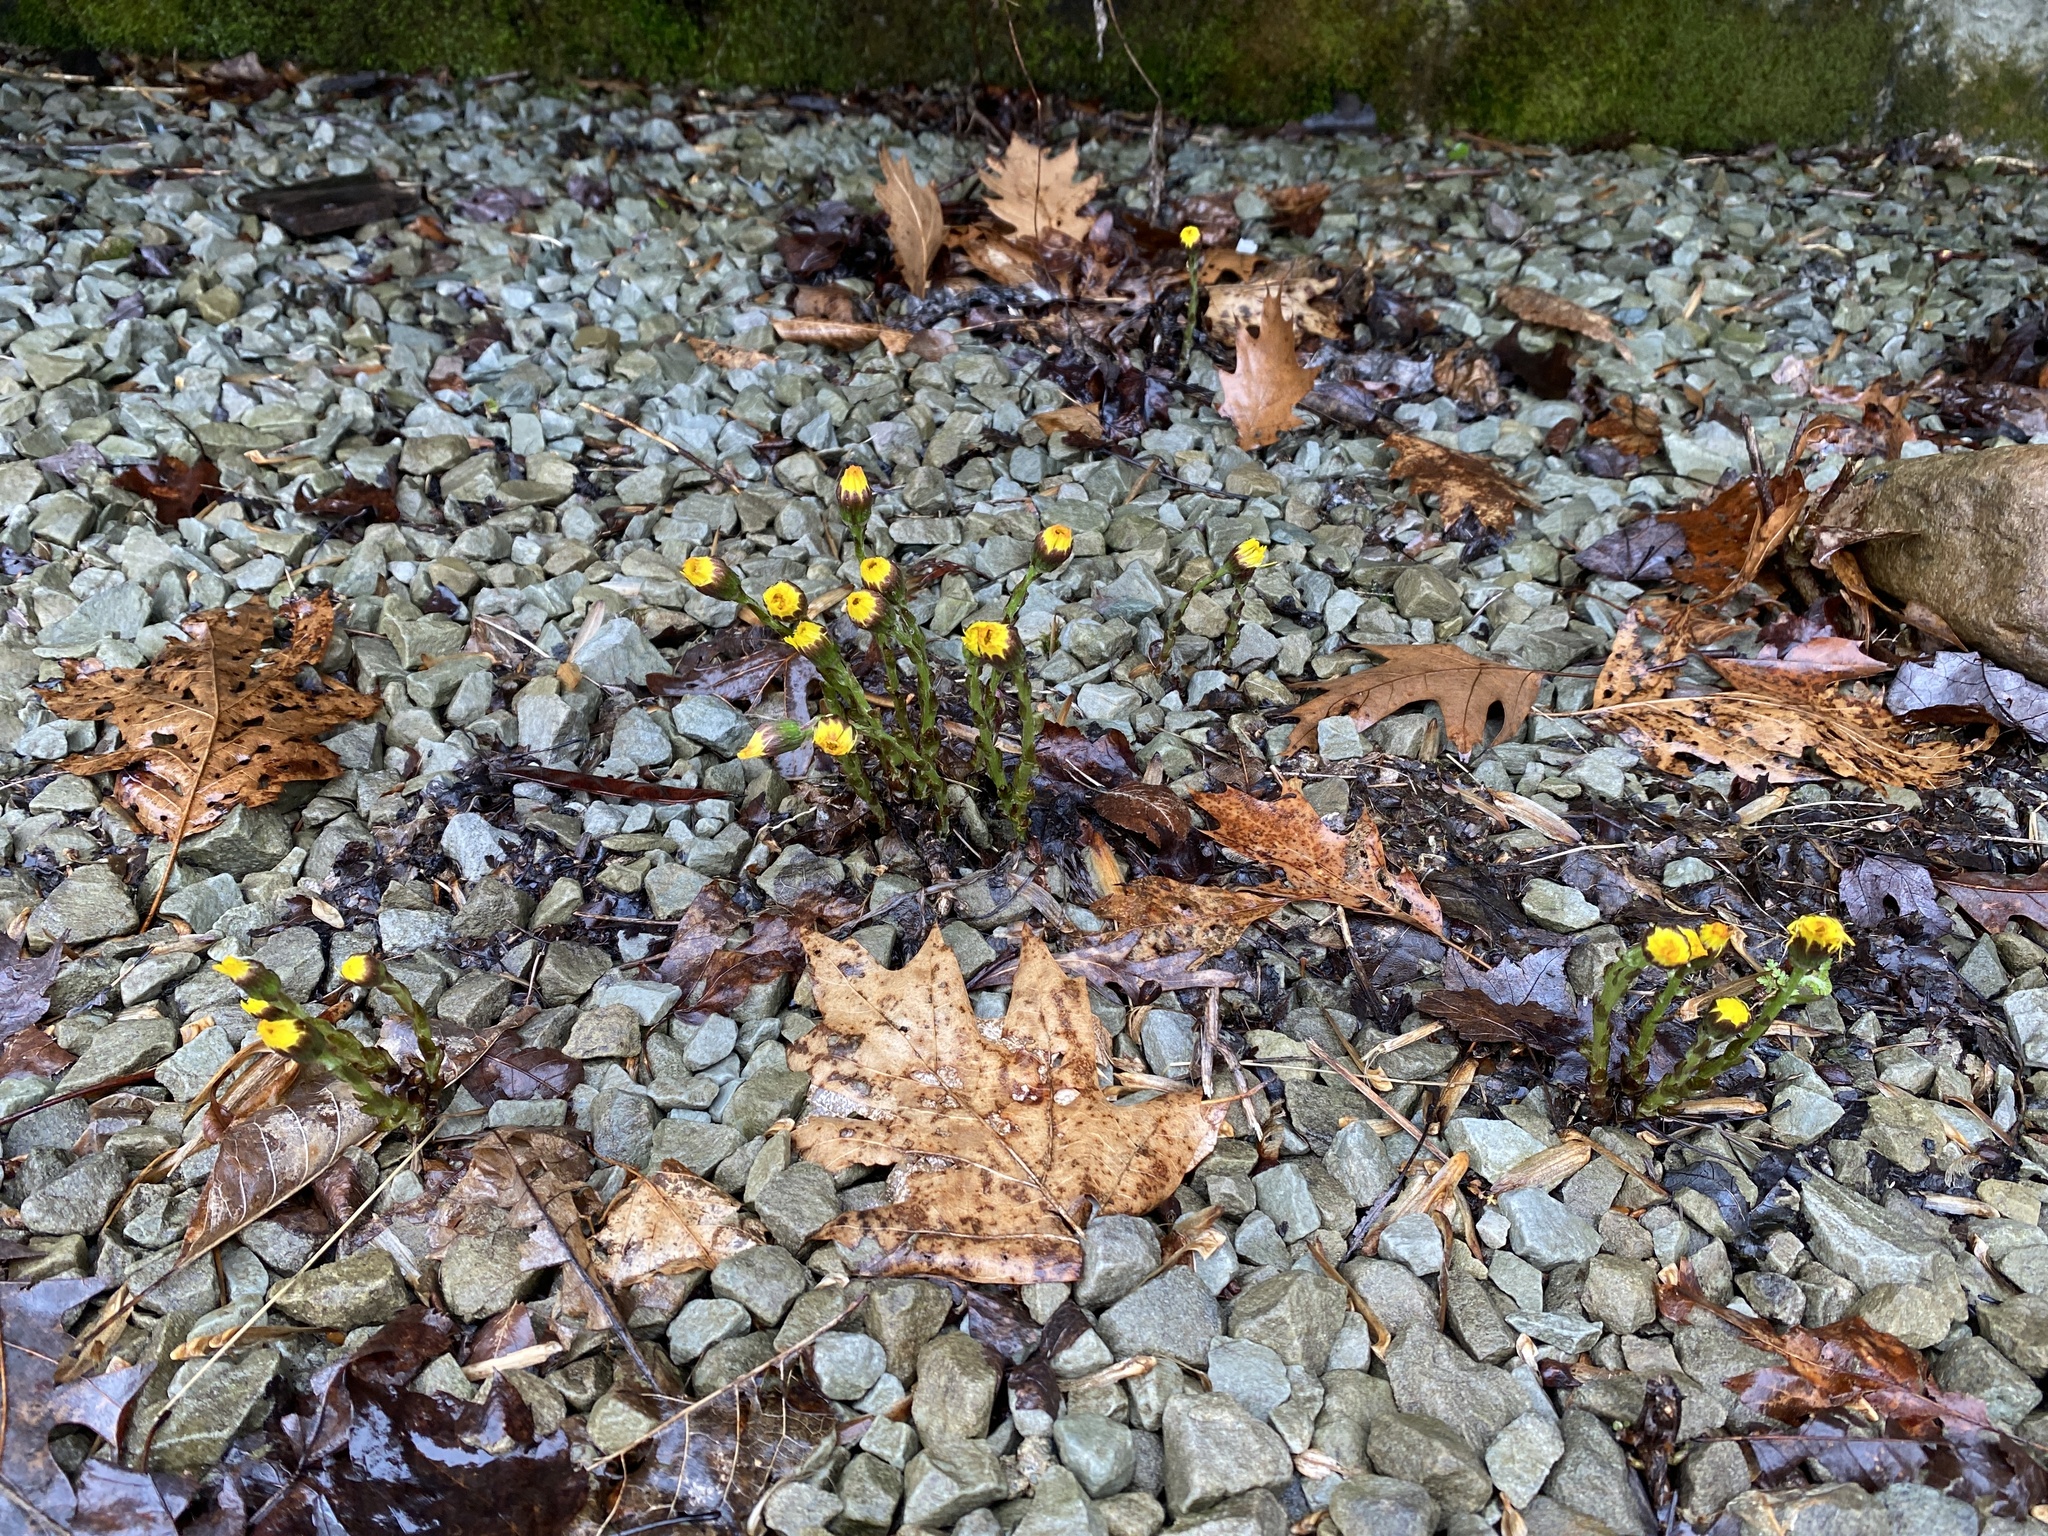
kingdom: Plantae
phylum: Tracheophyta
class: Magnoliopsida
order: Asterales
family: Asteraceae
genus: Tussilago
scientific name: Tussilago farfara
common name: Coltsfoot
